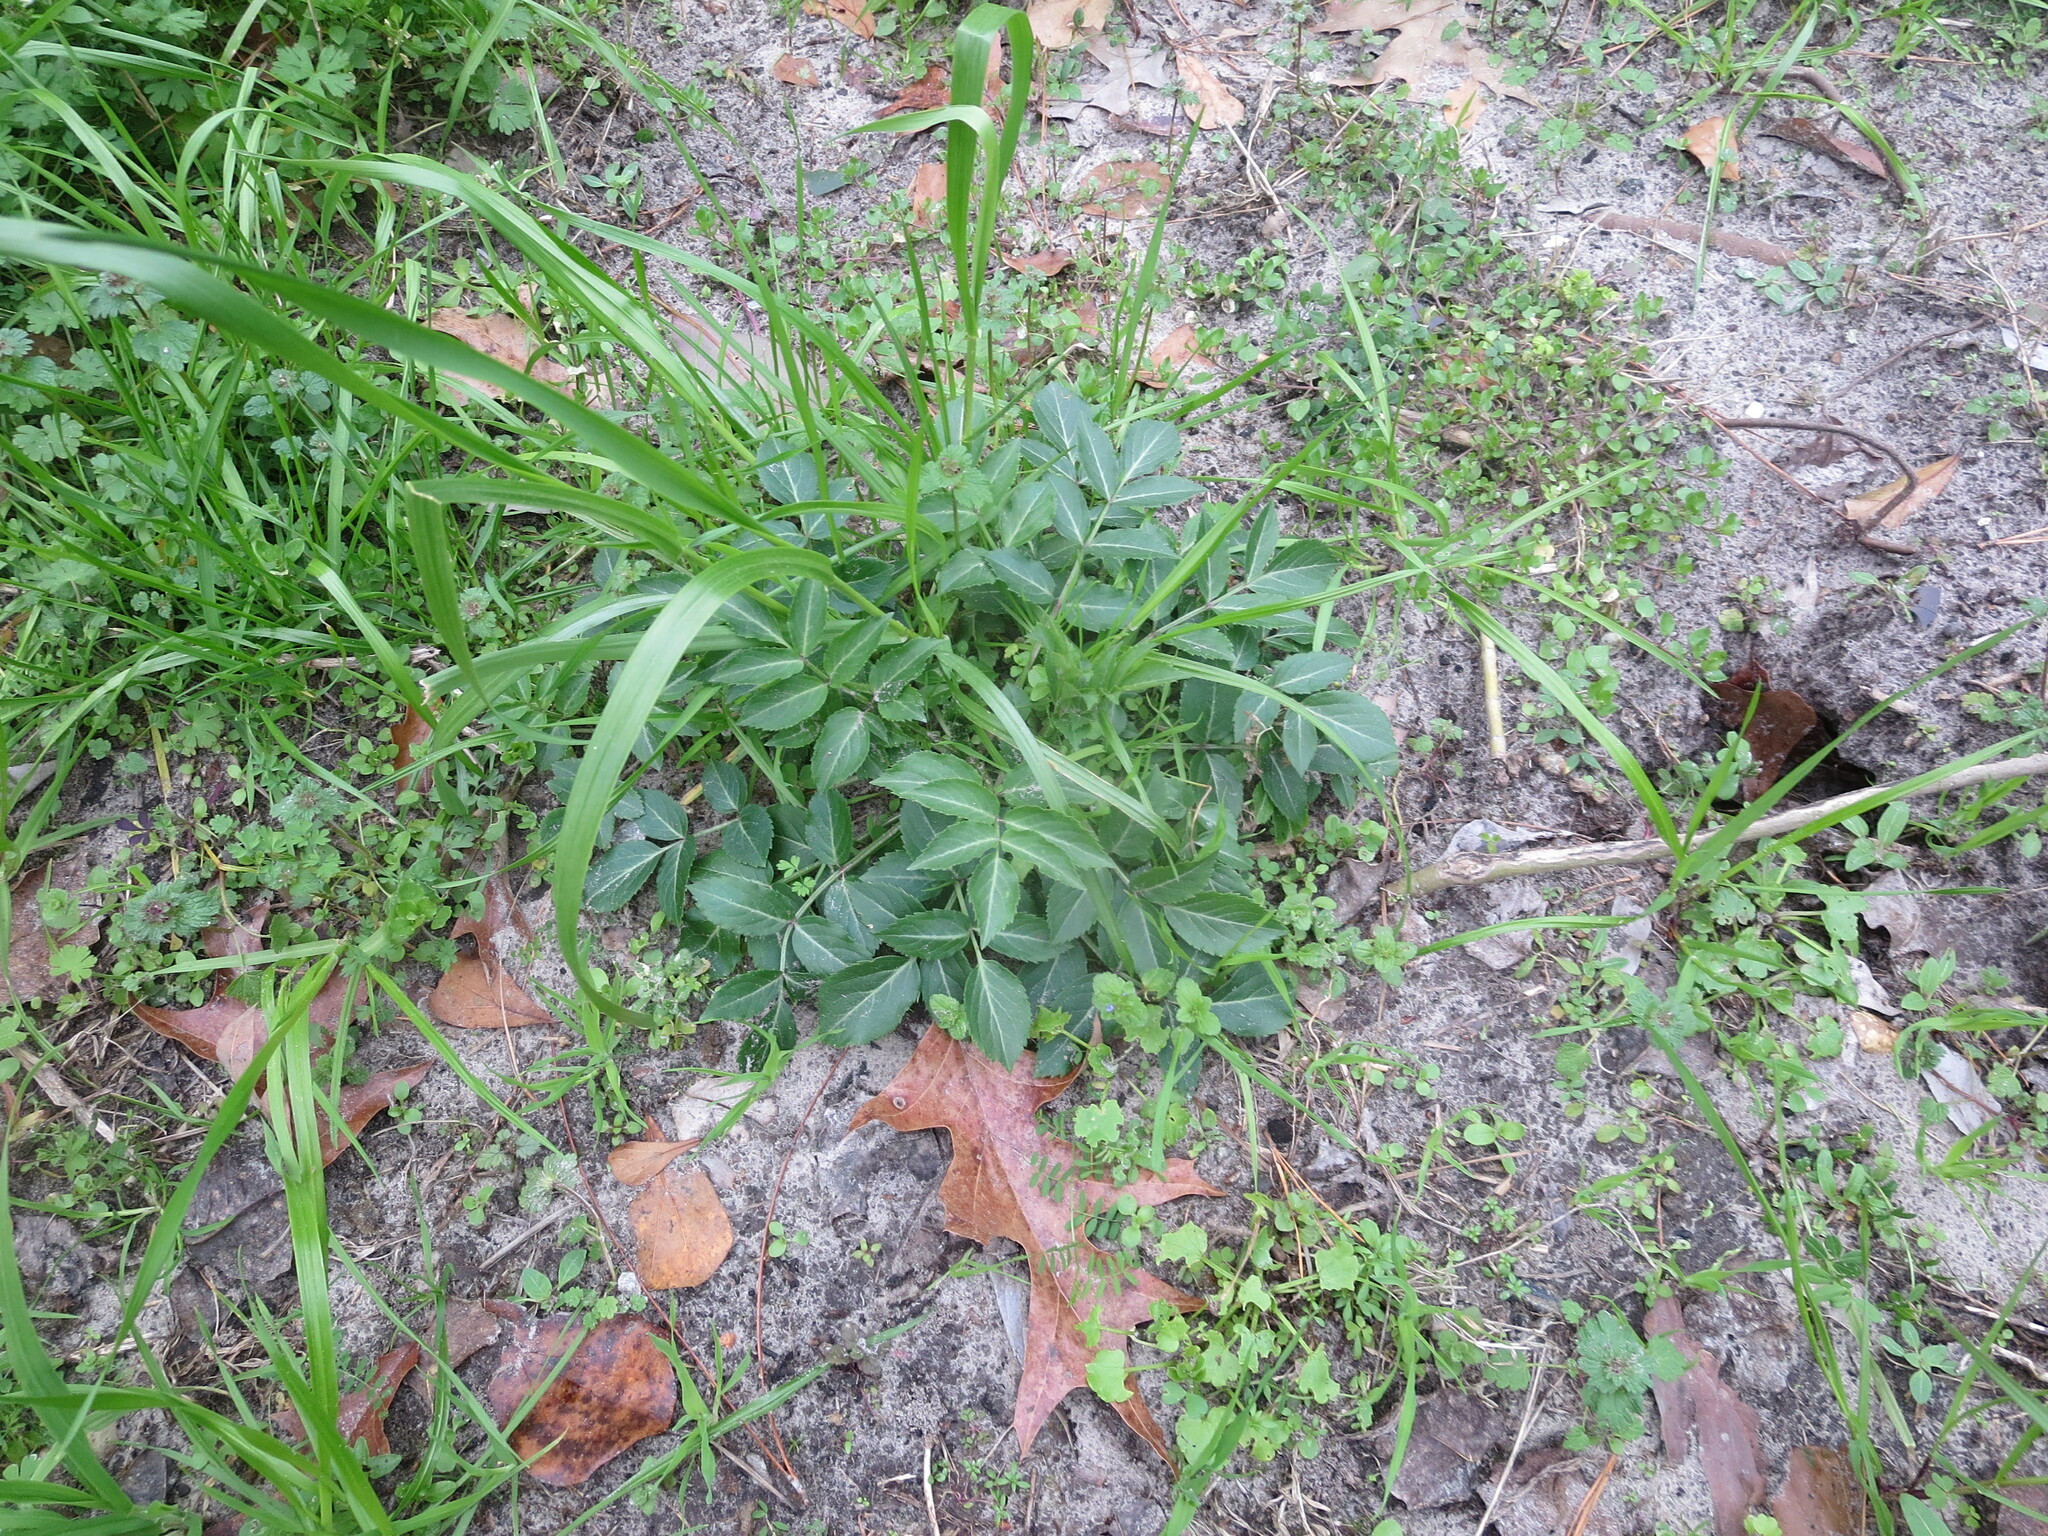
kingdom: Plantae
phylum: Tracheophyta
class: Magnoliopsida
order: Dipsacales
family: Viburnaceae
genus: Sambucus
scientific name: Sambucus canadensis
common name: American elder
